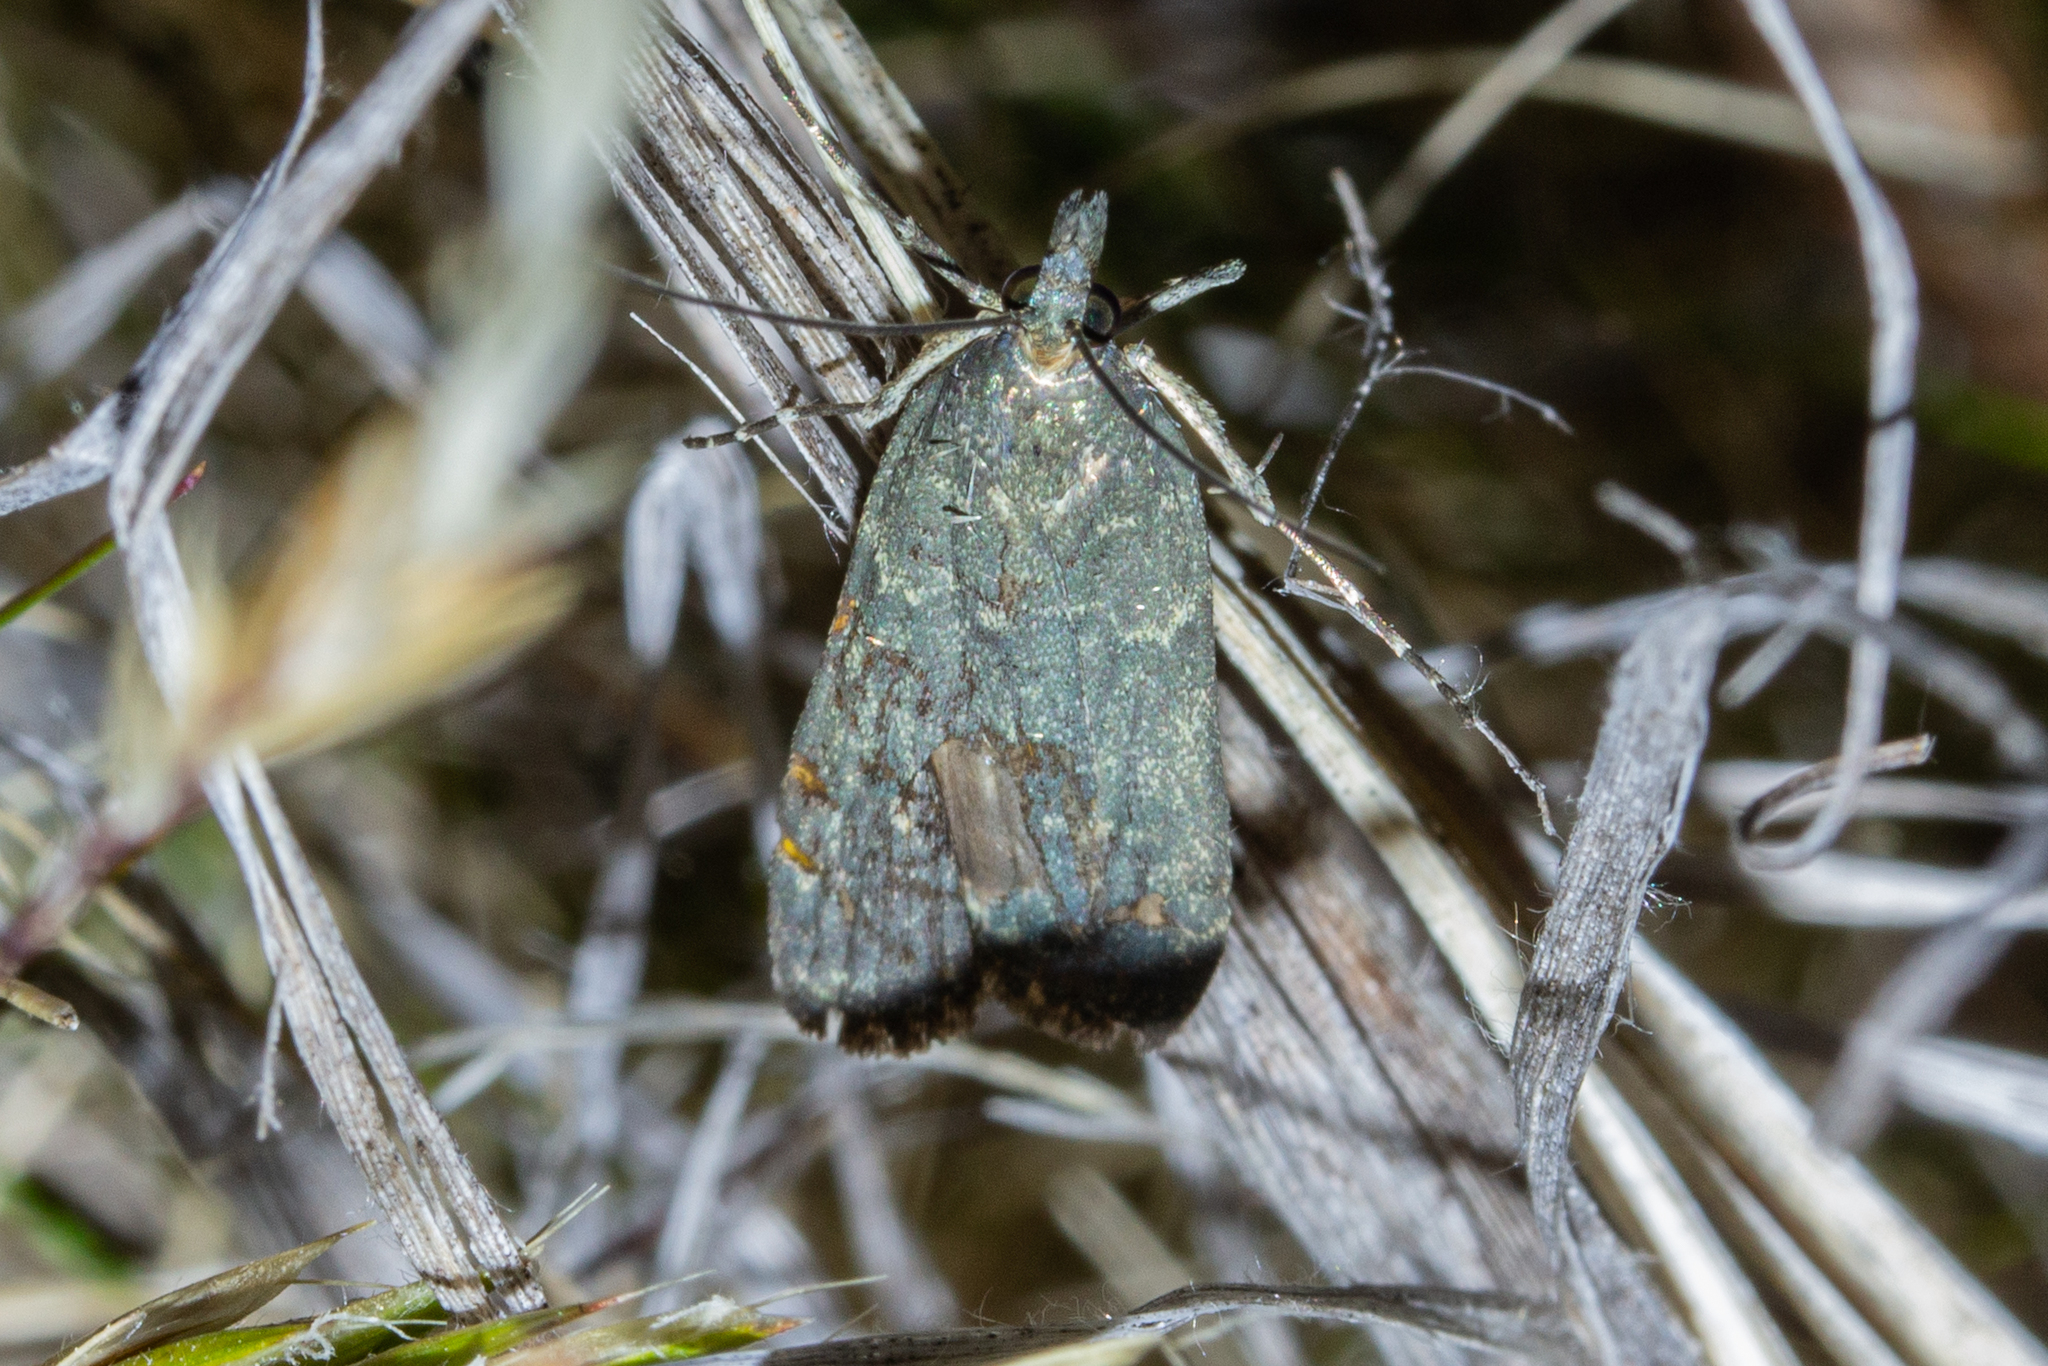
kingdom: Animalia
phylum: Arthropoda
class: Insecta
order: Lepidoptera
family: Crambidae
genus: Eudonia
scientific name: Eudonia cataxesta
